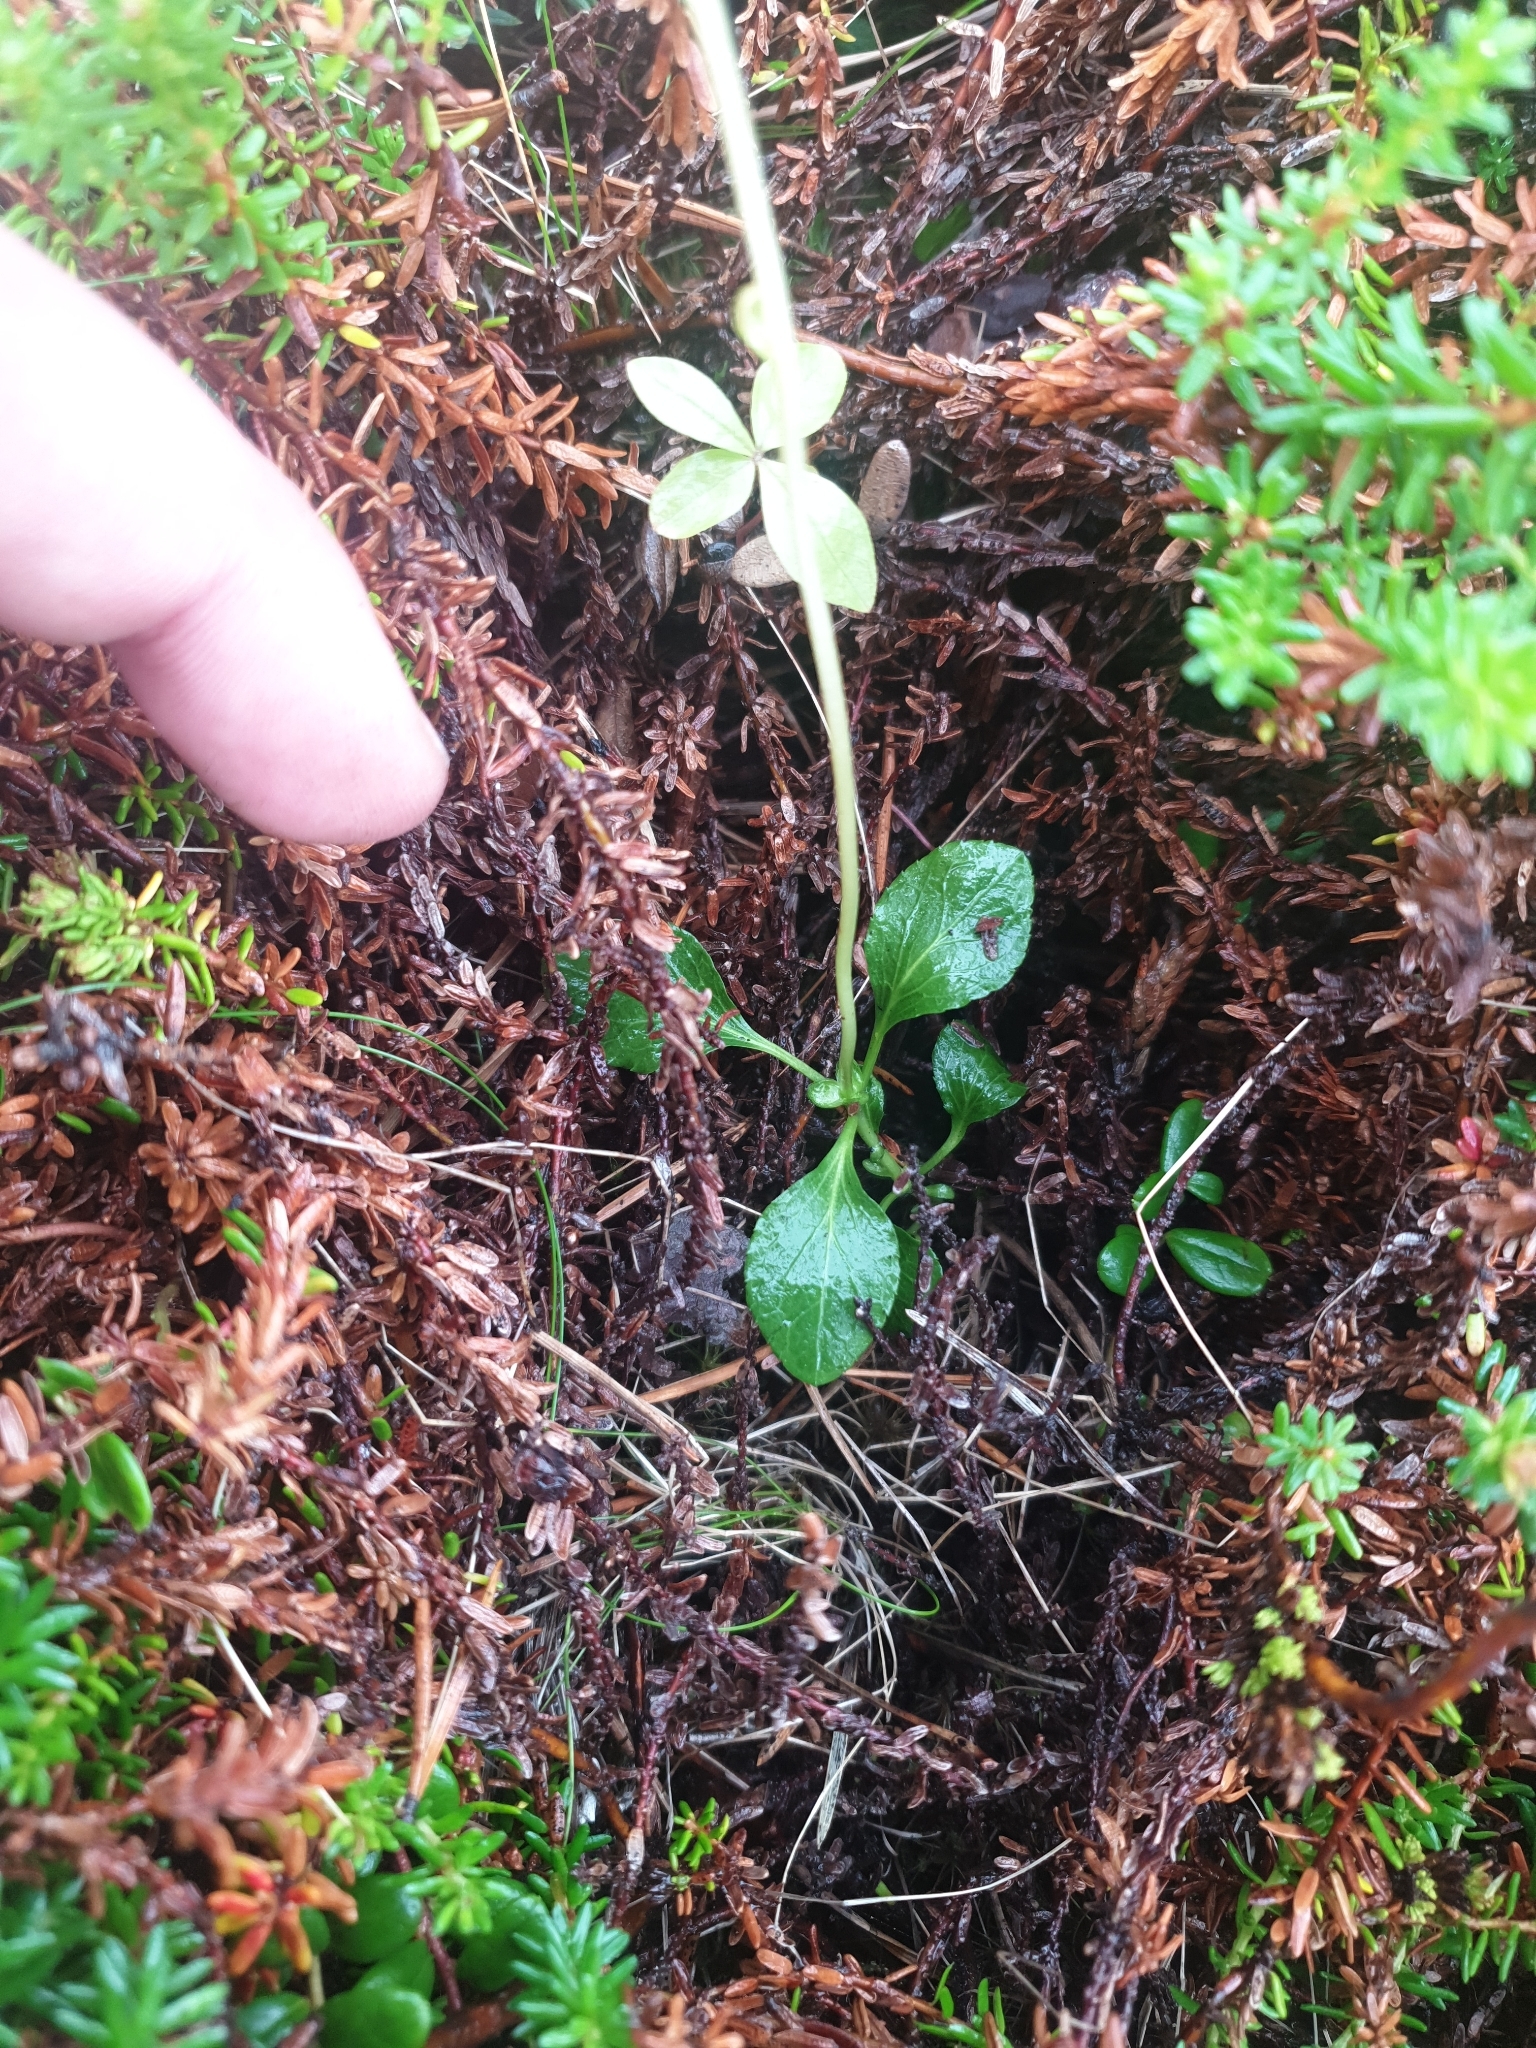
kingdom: Plantae
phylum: Tracheophyta
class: Magnoliopsida
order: Ericales
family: Ericaceae
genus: Moneses
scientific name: Moneses uniflora
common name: One-flowered wintergreen
